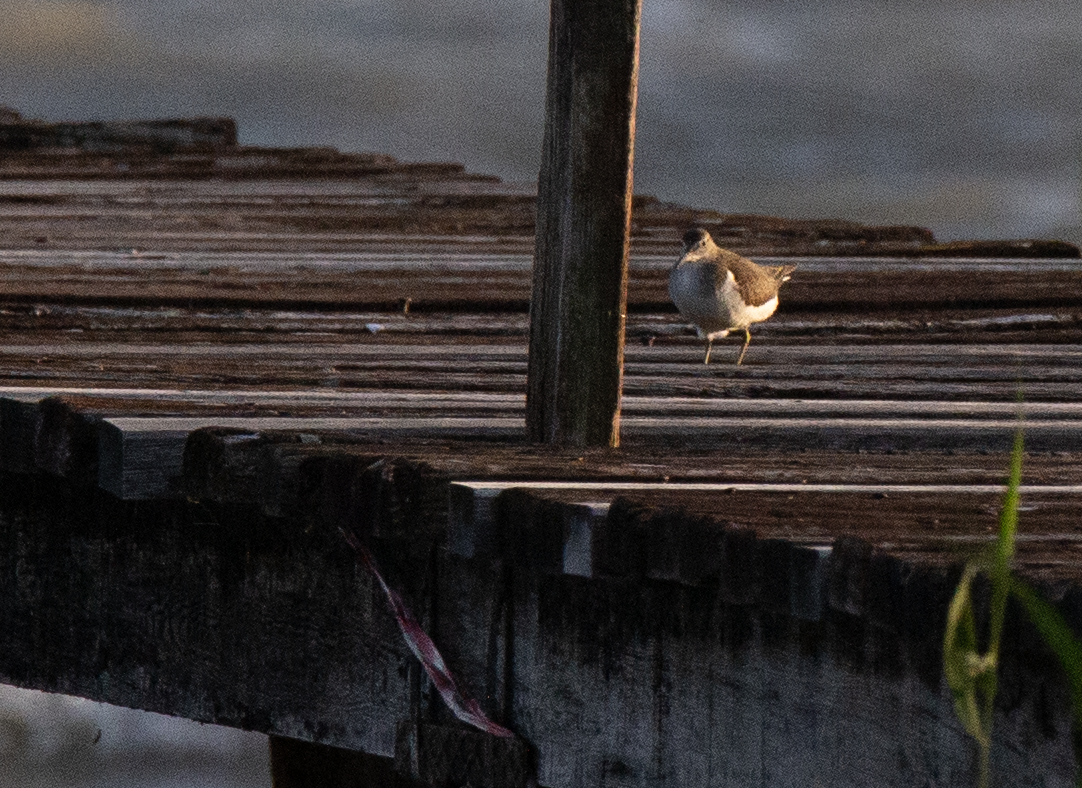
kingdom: Animalia
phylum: Chordata
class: Aves
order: Charadriiformes
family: Scolopacidae
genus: Actitis
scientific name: Actitis hypoleucos
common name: Common sandpiper
